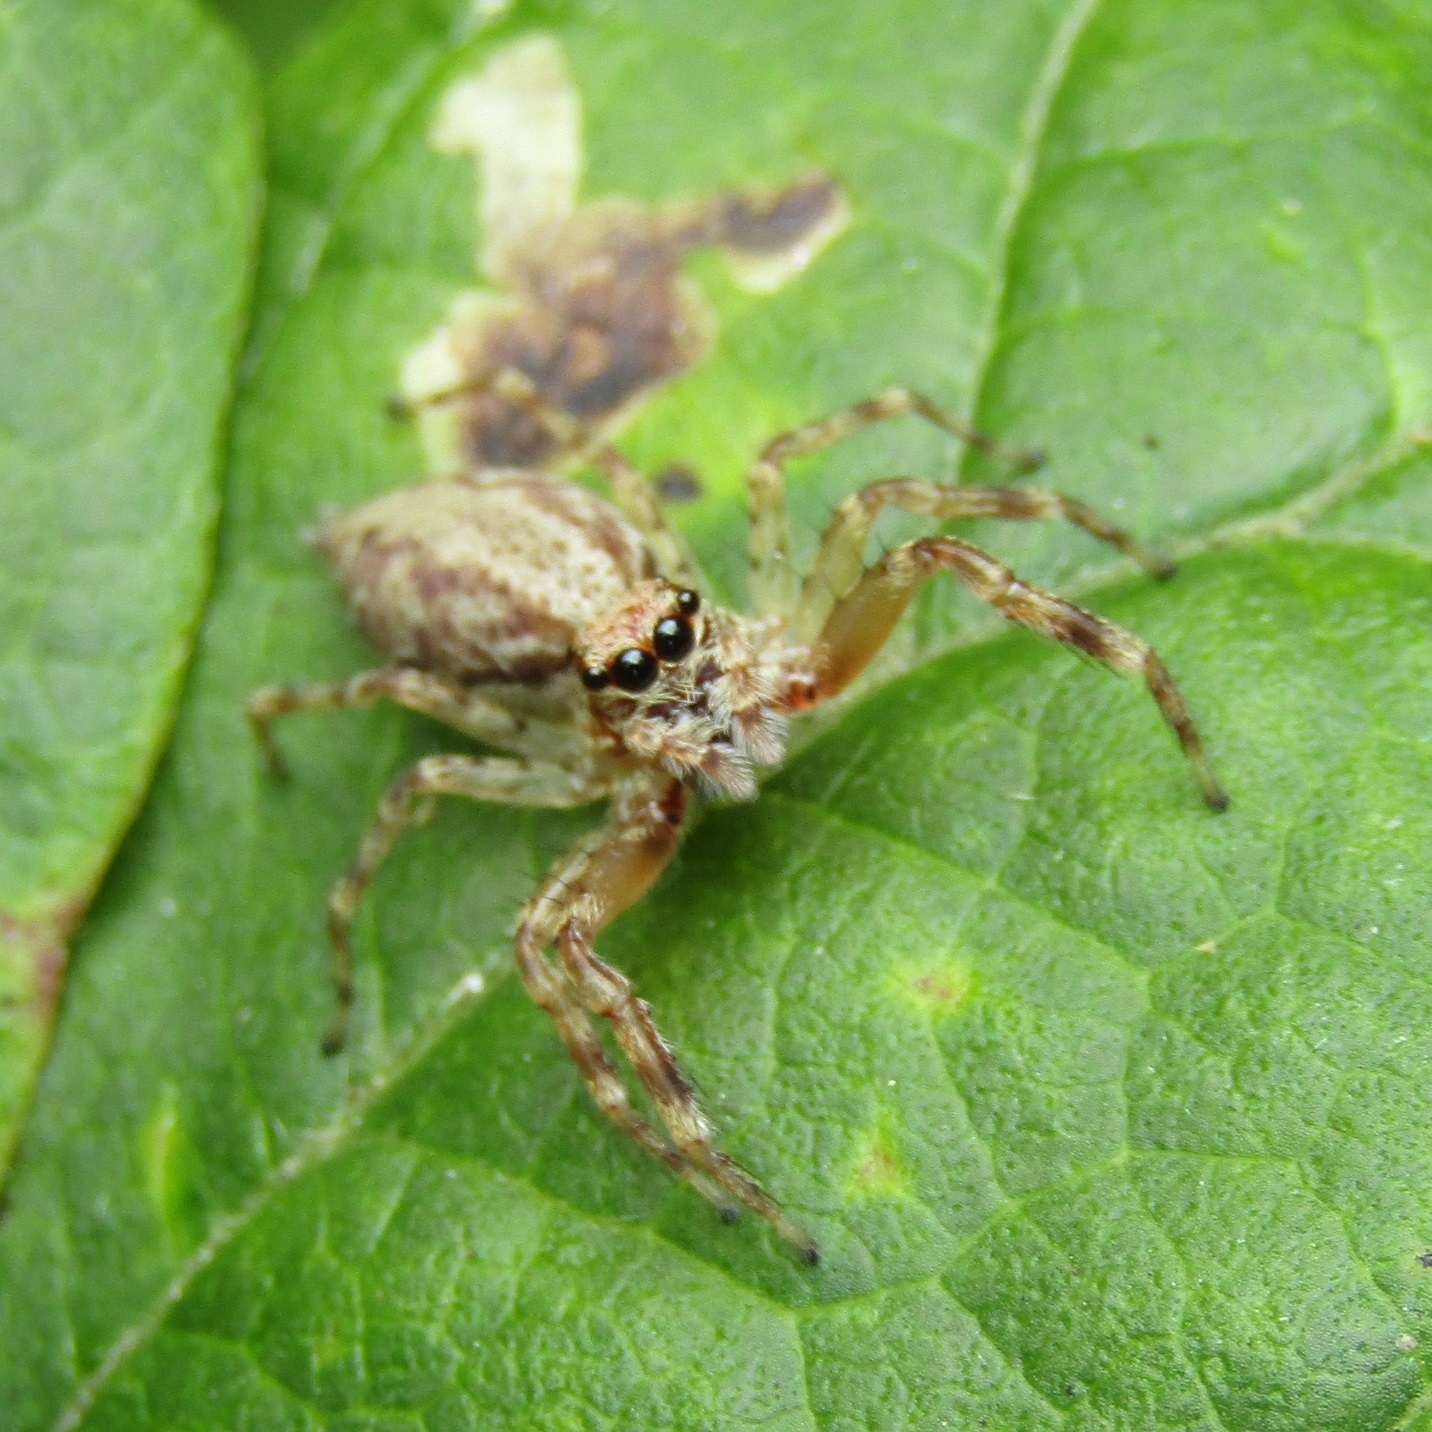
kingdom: Animalia
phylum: Arthropoda
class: Arachnida
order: Araneae
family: Salticidae
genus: Helpis
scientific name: Helpis minitabunda
